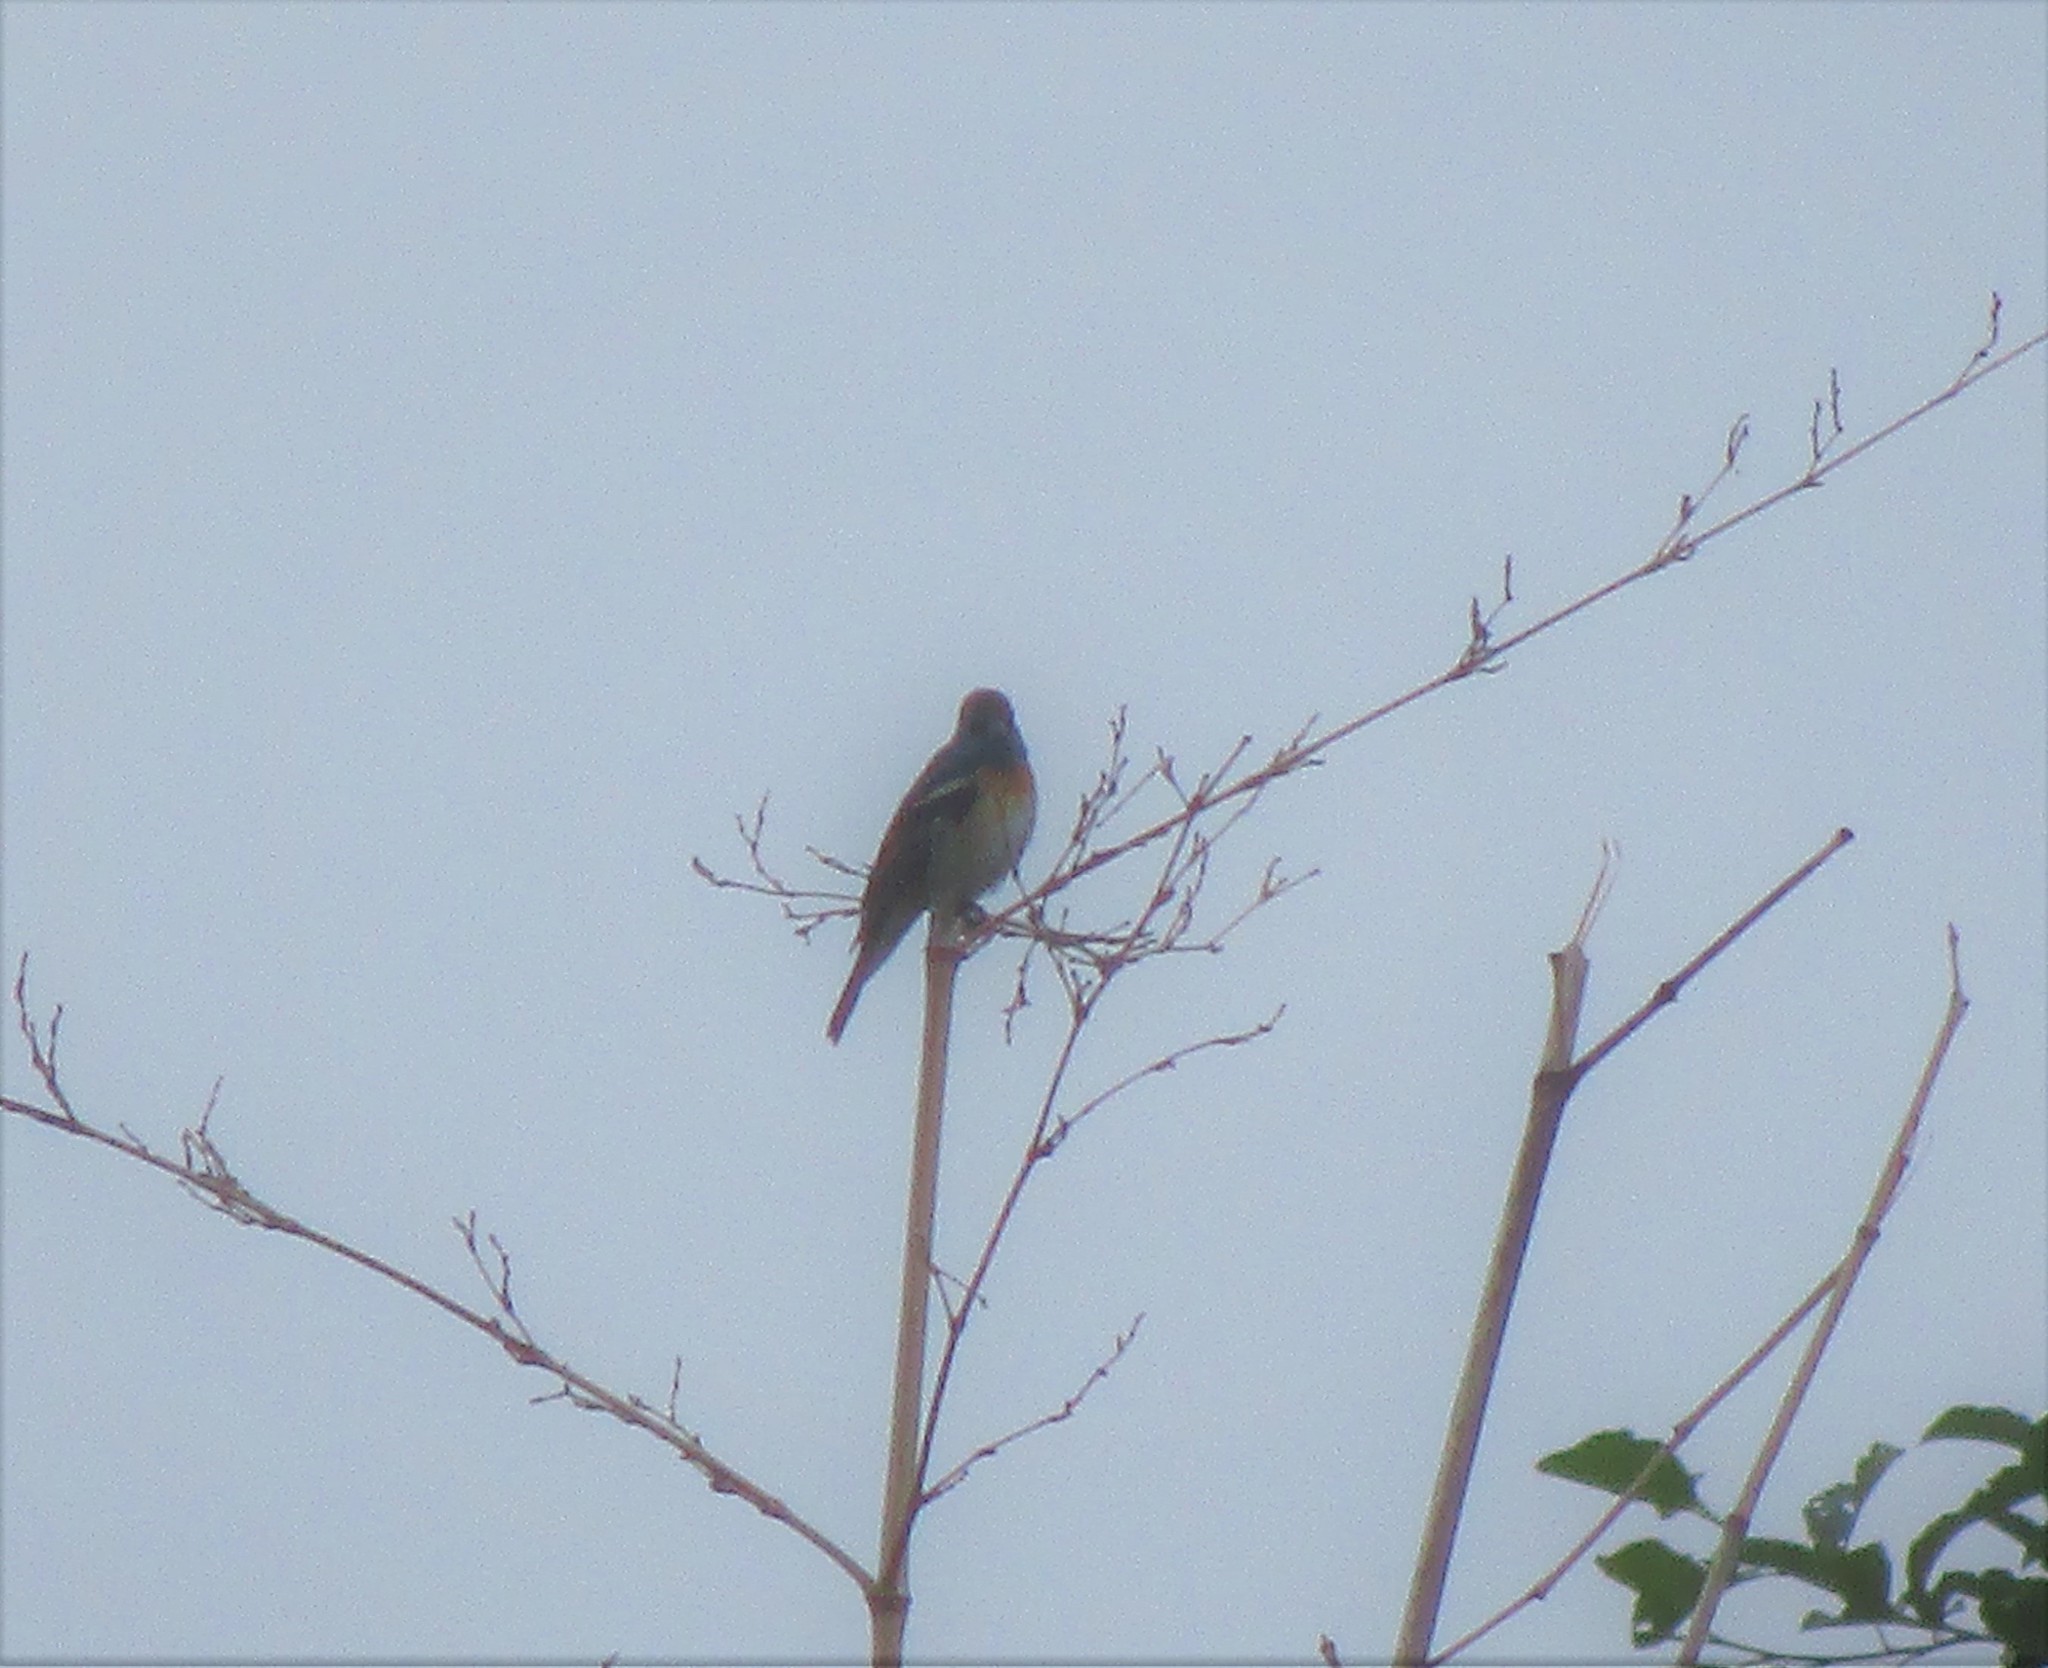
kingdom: Animalia
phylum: Chordata
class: Aves
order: Passeriformes
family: Cardinalidae
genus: Passerina
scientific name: Passerina amoena
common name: Lazuli bunting
